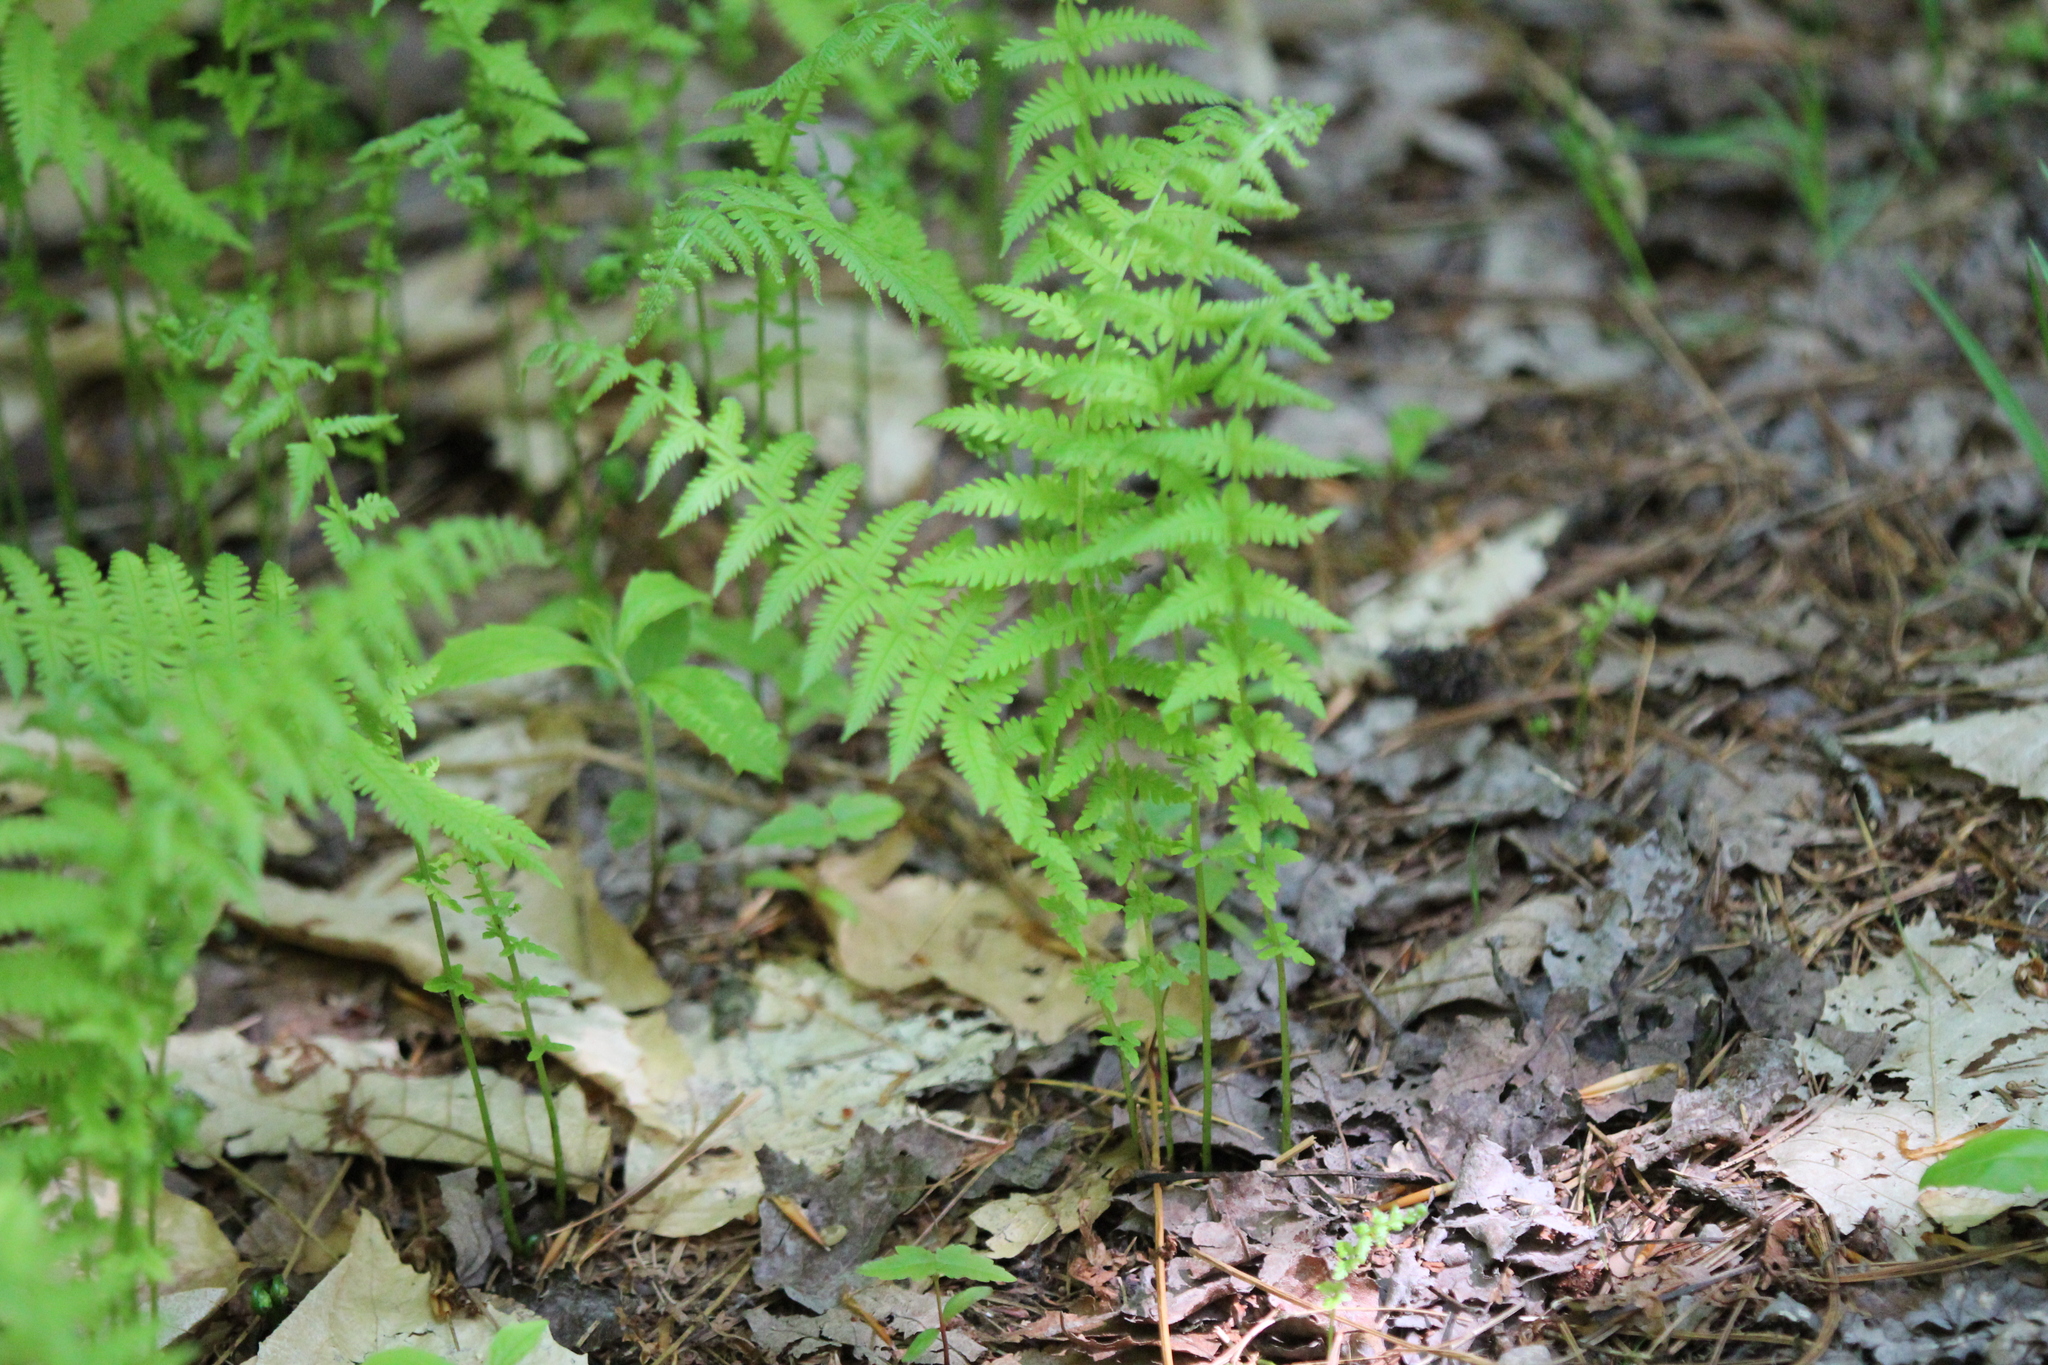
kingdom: Plantae
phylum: Tracheophyta
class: Polypodiopsida
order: Polypodiales
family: Thelypteridaceae
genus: Amauropelta
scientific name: Amauropelta noveboracensis
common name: New york fern
